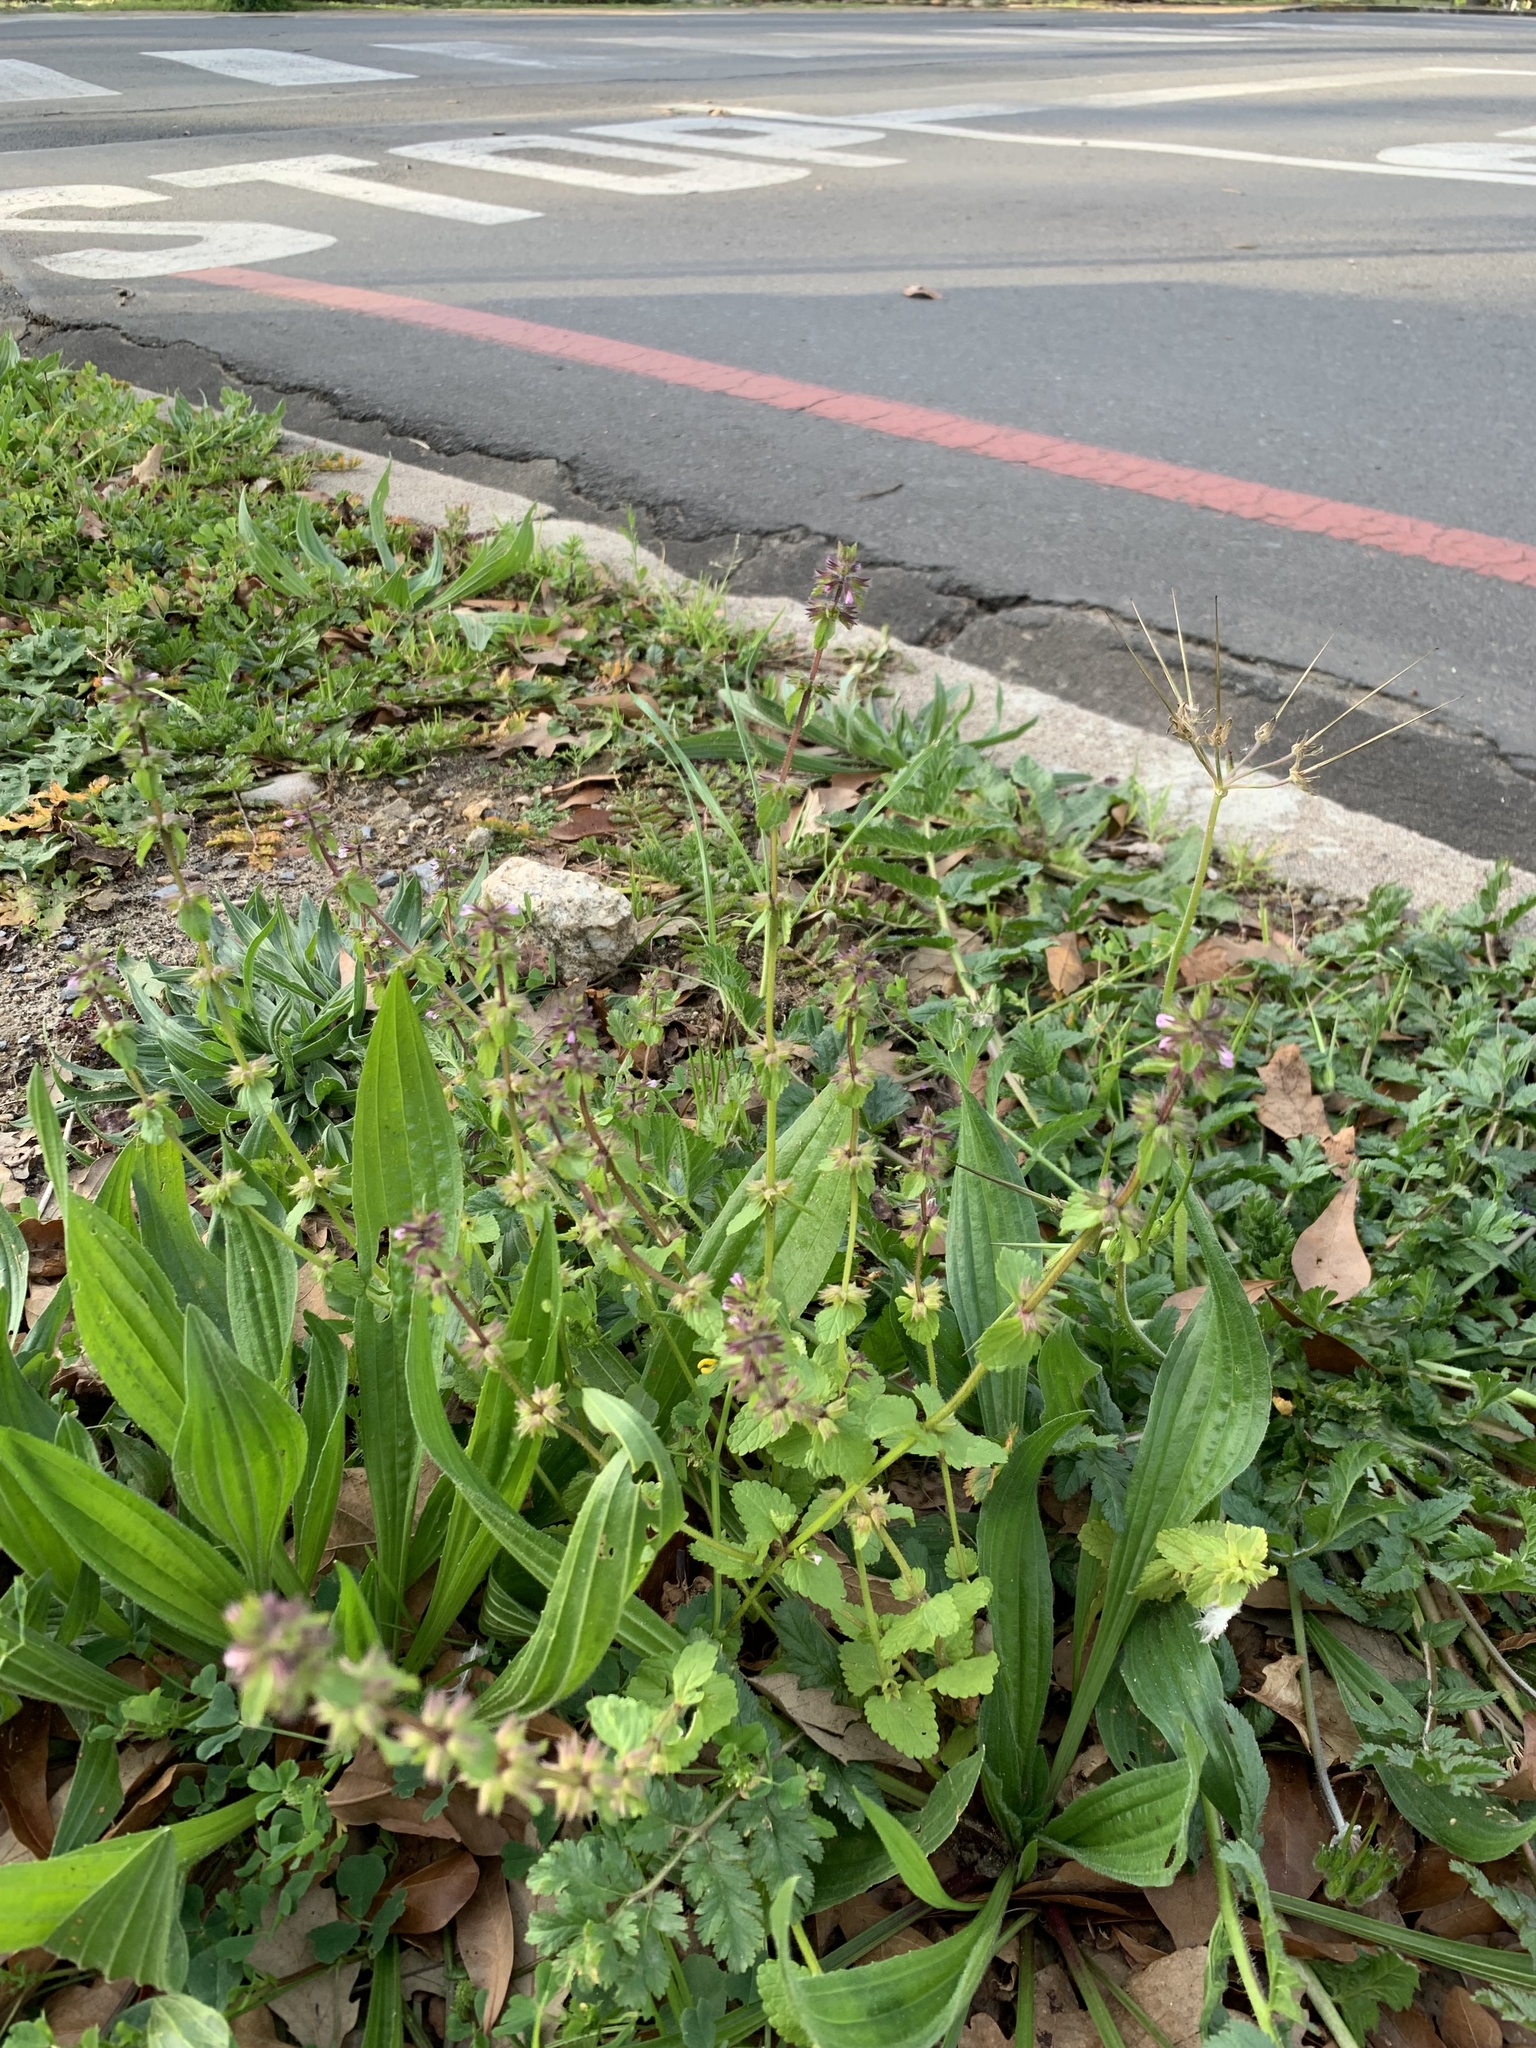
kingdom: Plantae
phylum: Tracheophyta
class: Magnoliopsida
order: Lamiales
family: Lamiaceae
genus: Stachys
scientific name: Stachys arvensis
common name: Field woundwort
